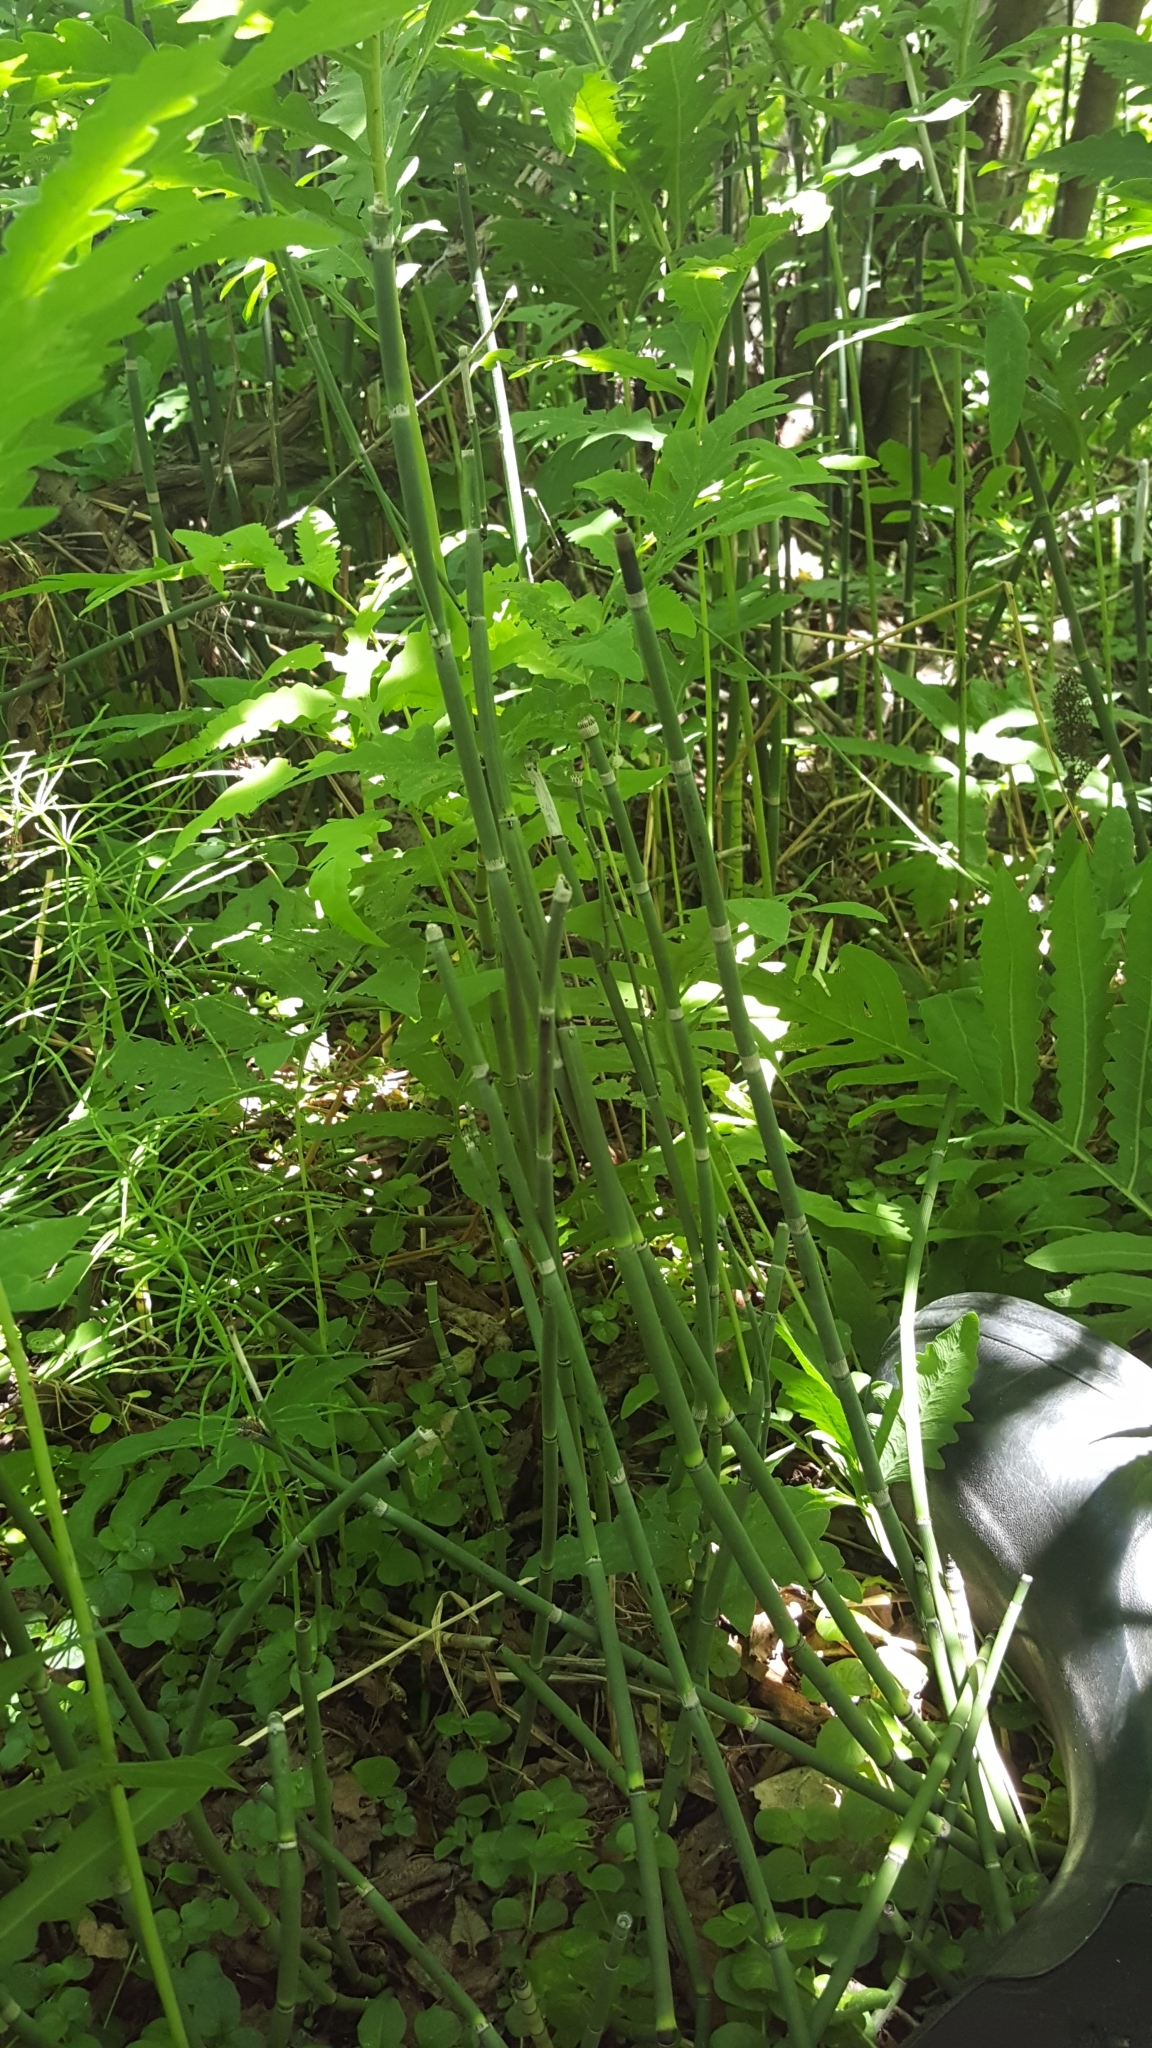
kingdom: Plantae
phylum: Tracheophyta
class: Polypodiopsida
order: Equisetales
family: Equisetaceae
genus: Equisetum
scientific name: Equisetum hyemale
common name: Rough horsetail
